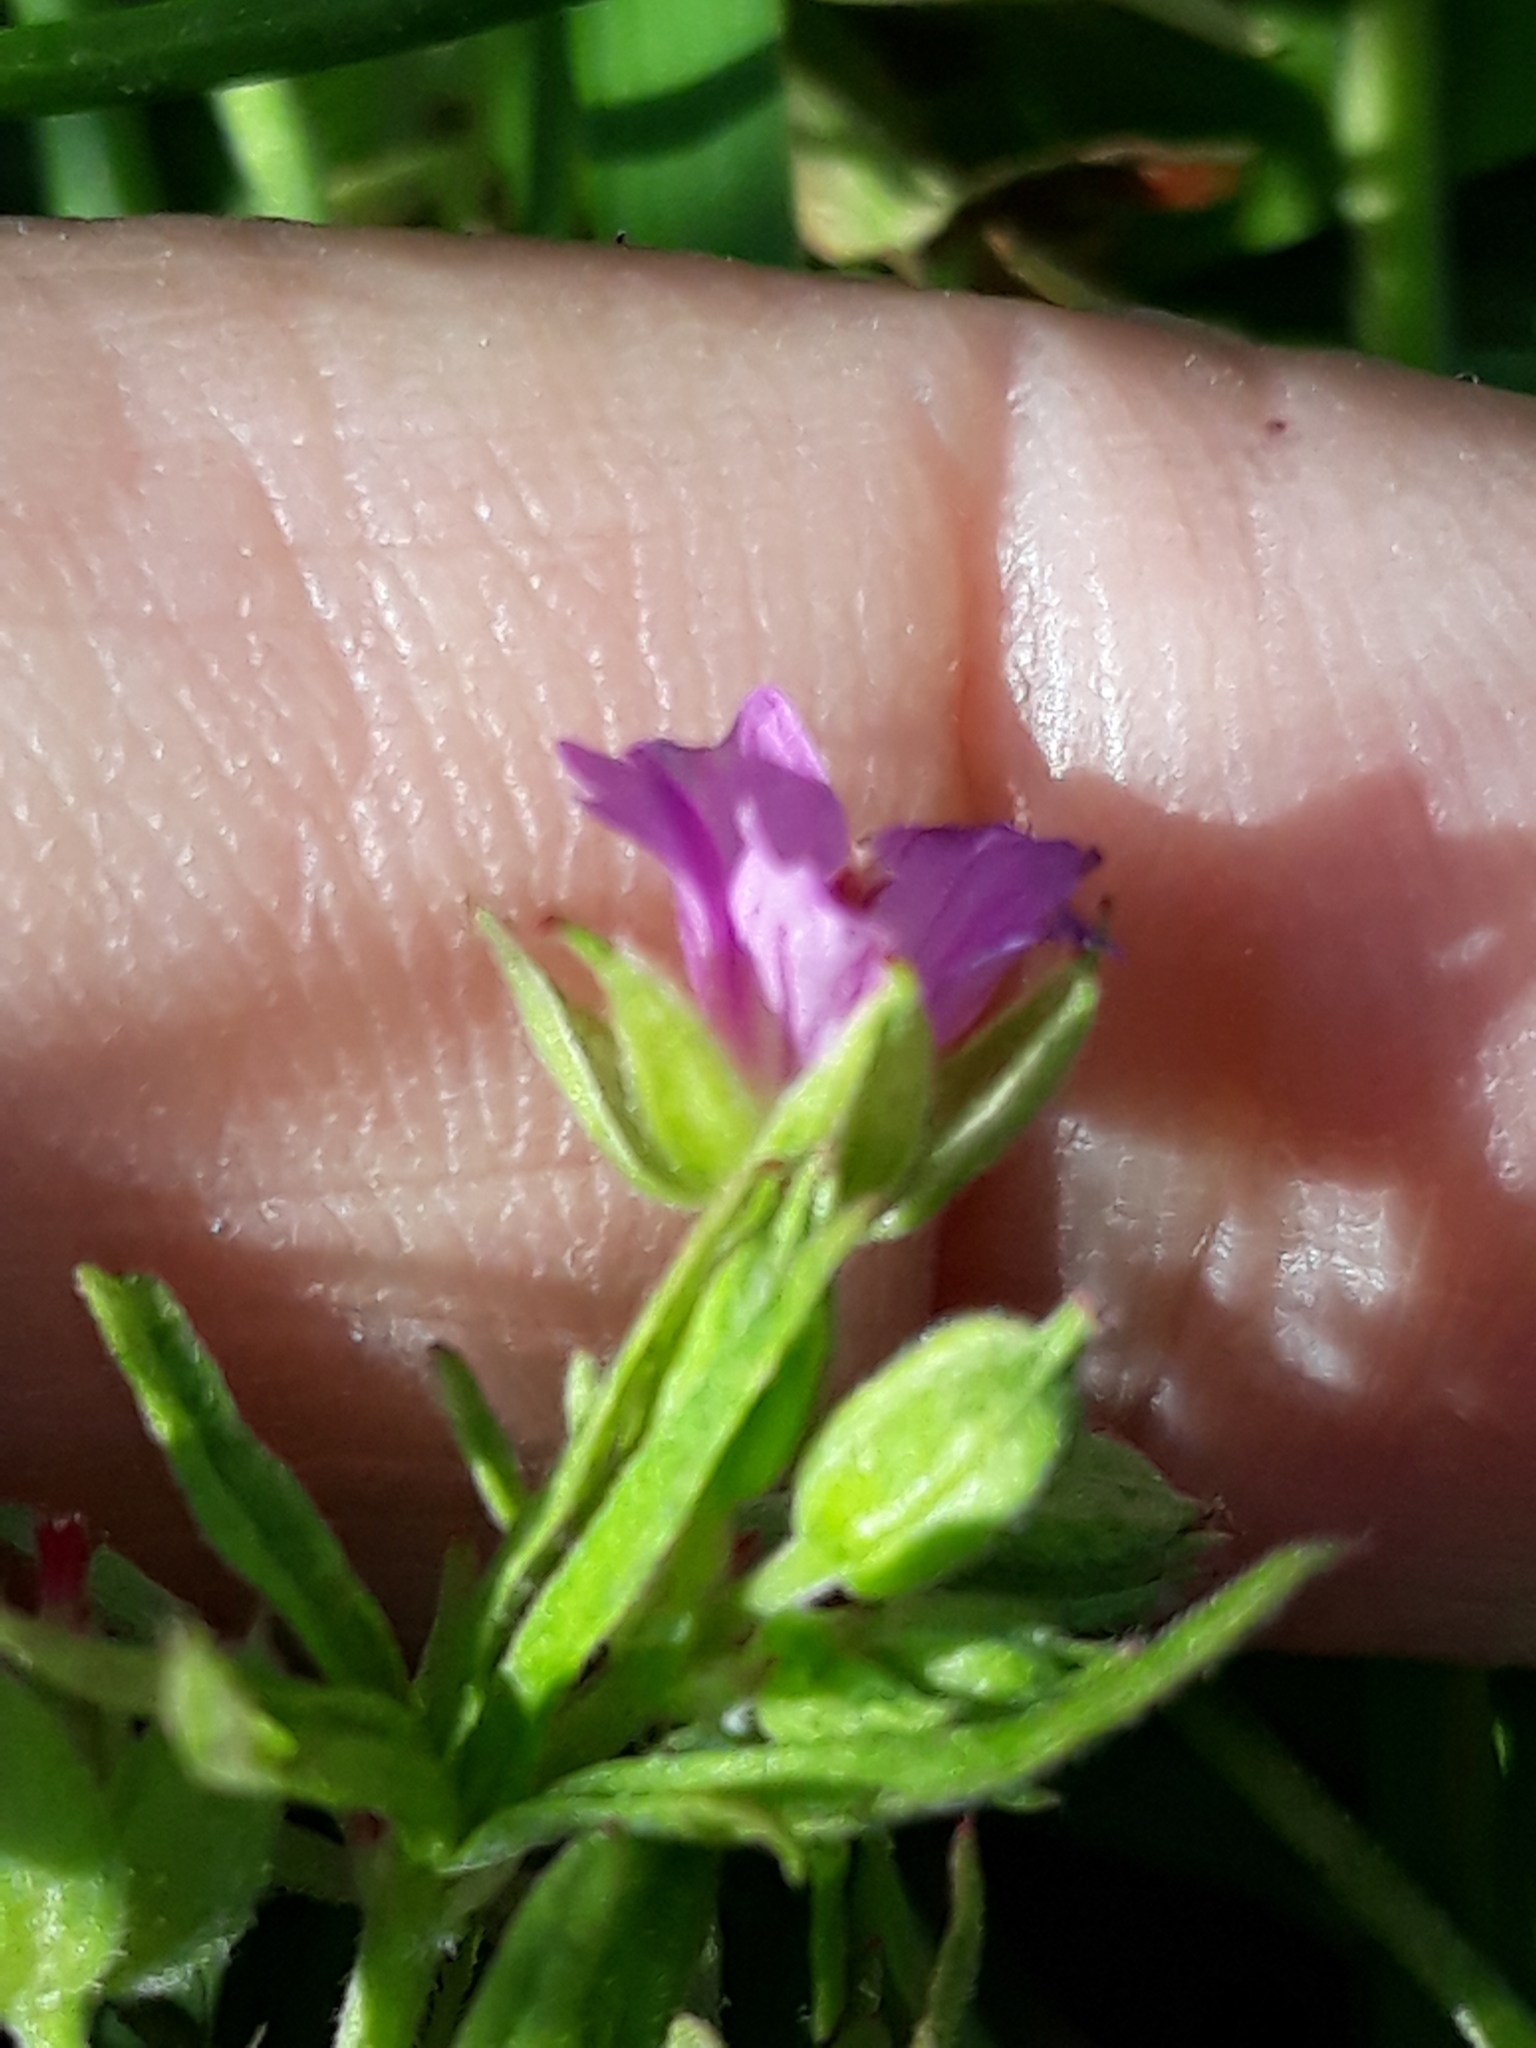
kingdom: Plantae
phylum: Tracheophyta
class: Magnoliopsida
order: Geraniales
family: Geraniaceae
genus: Geranium
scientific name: Geranium dissectum
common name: Cut-leaved crane's-bill
